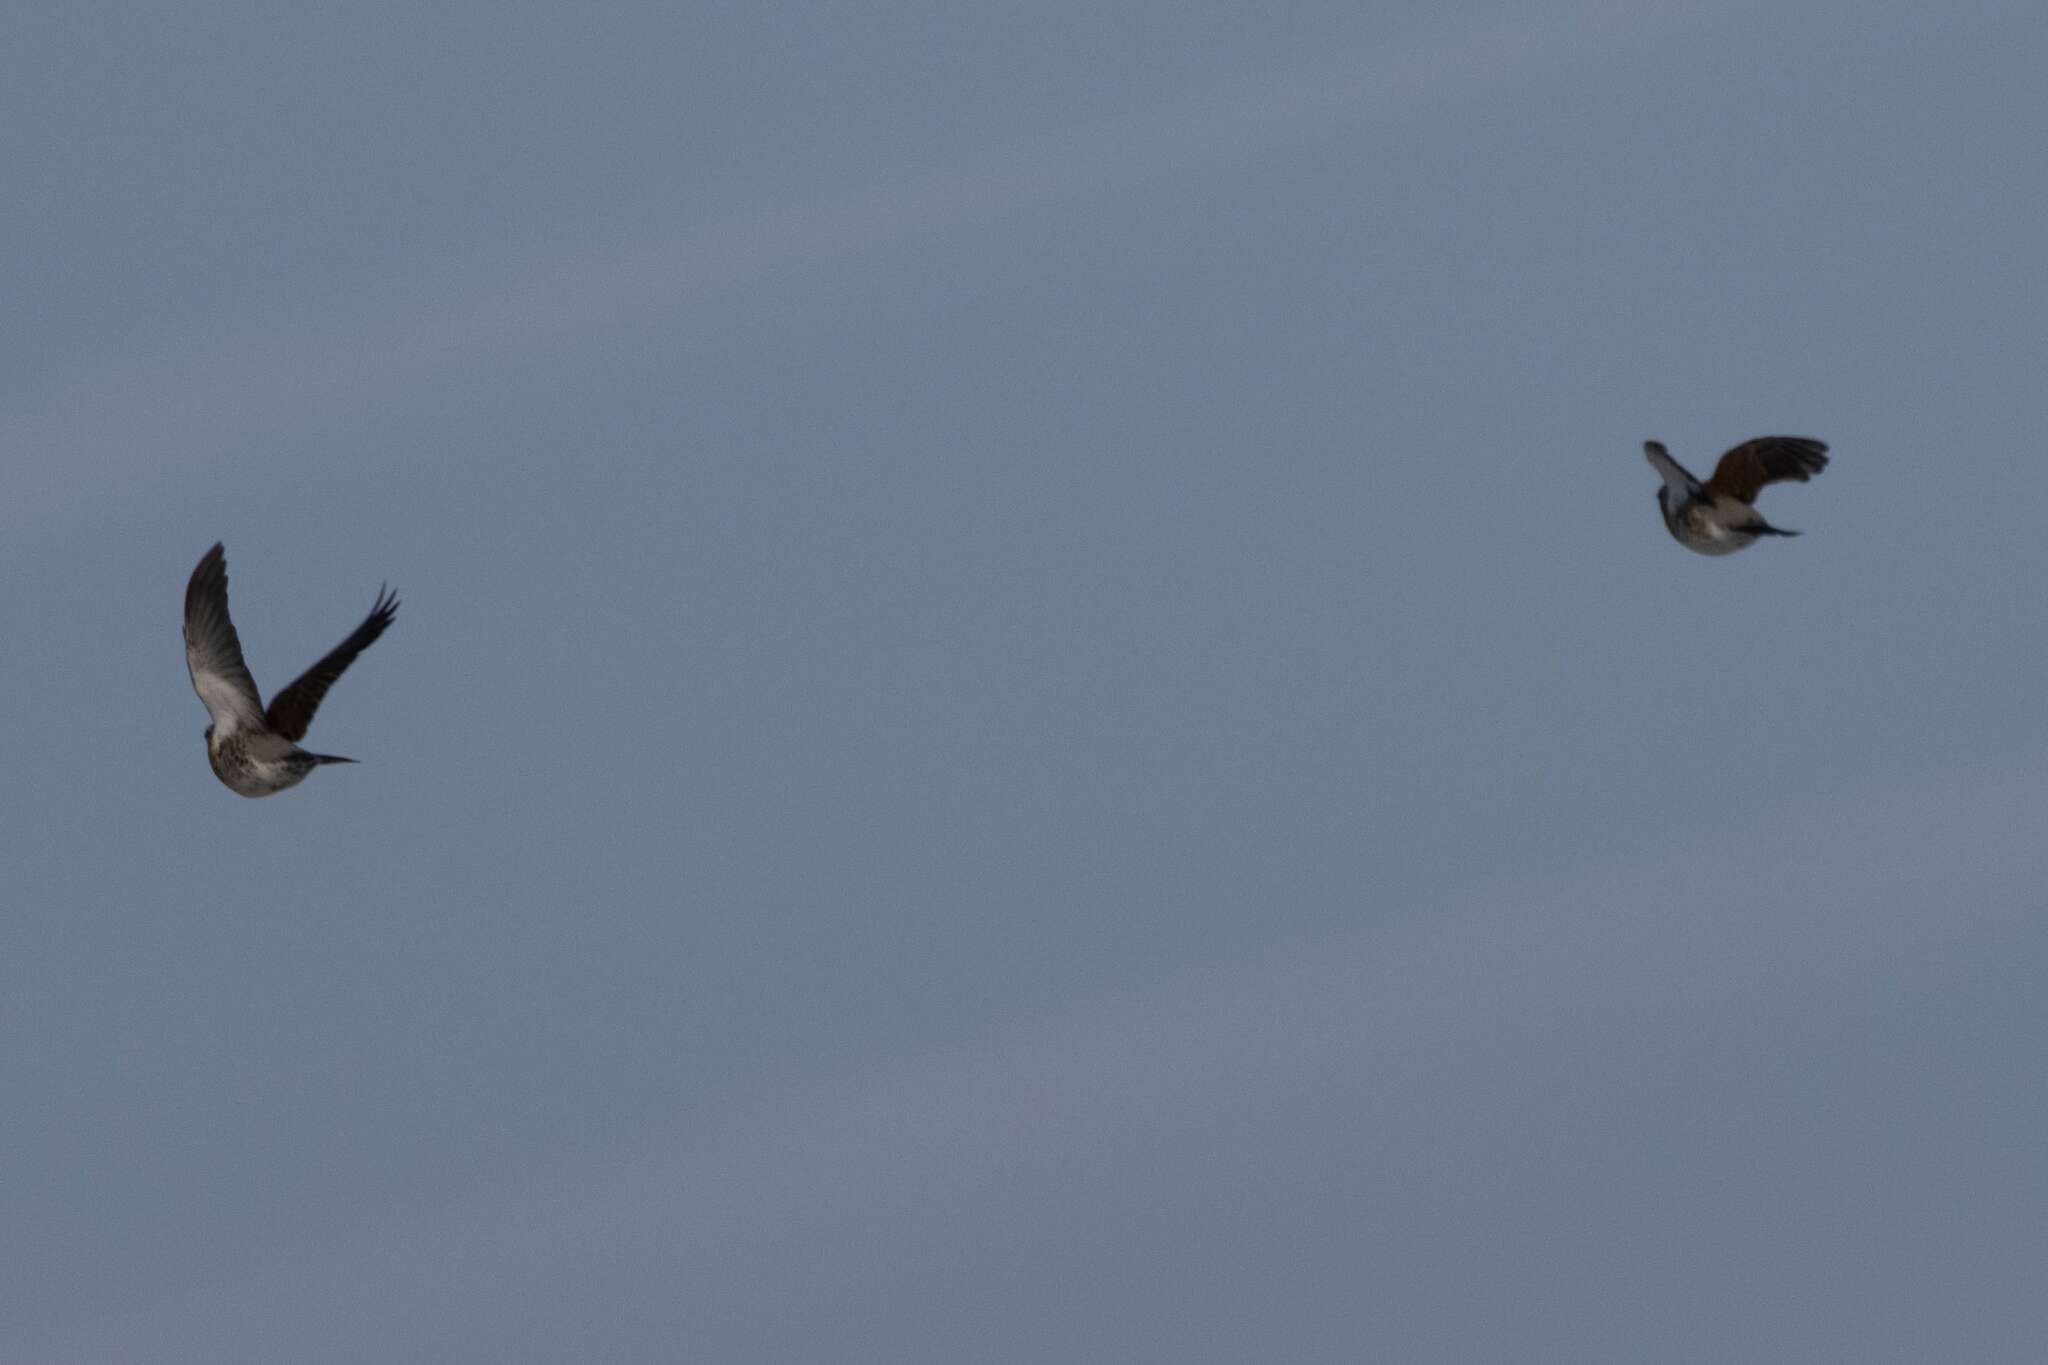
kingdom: Animalia
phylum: Chordata
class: Aves
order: Passeriformes
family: Turdidae
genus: Turdus
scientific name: Turdus pilaris
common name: Fieldfare
